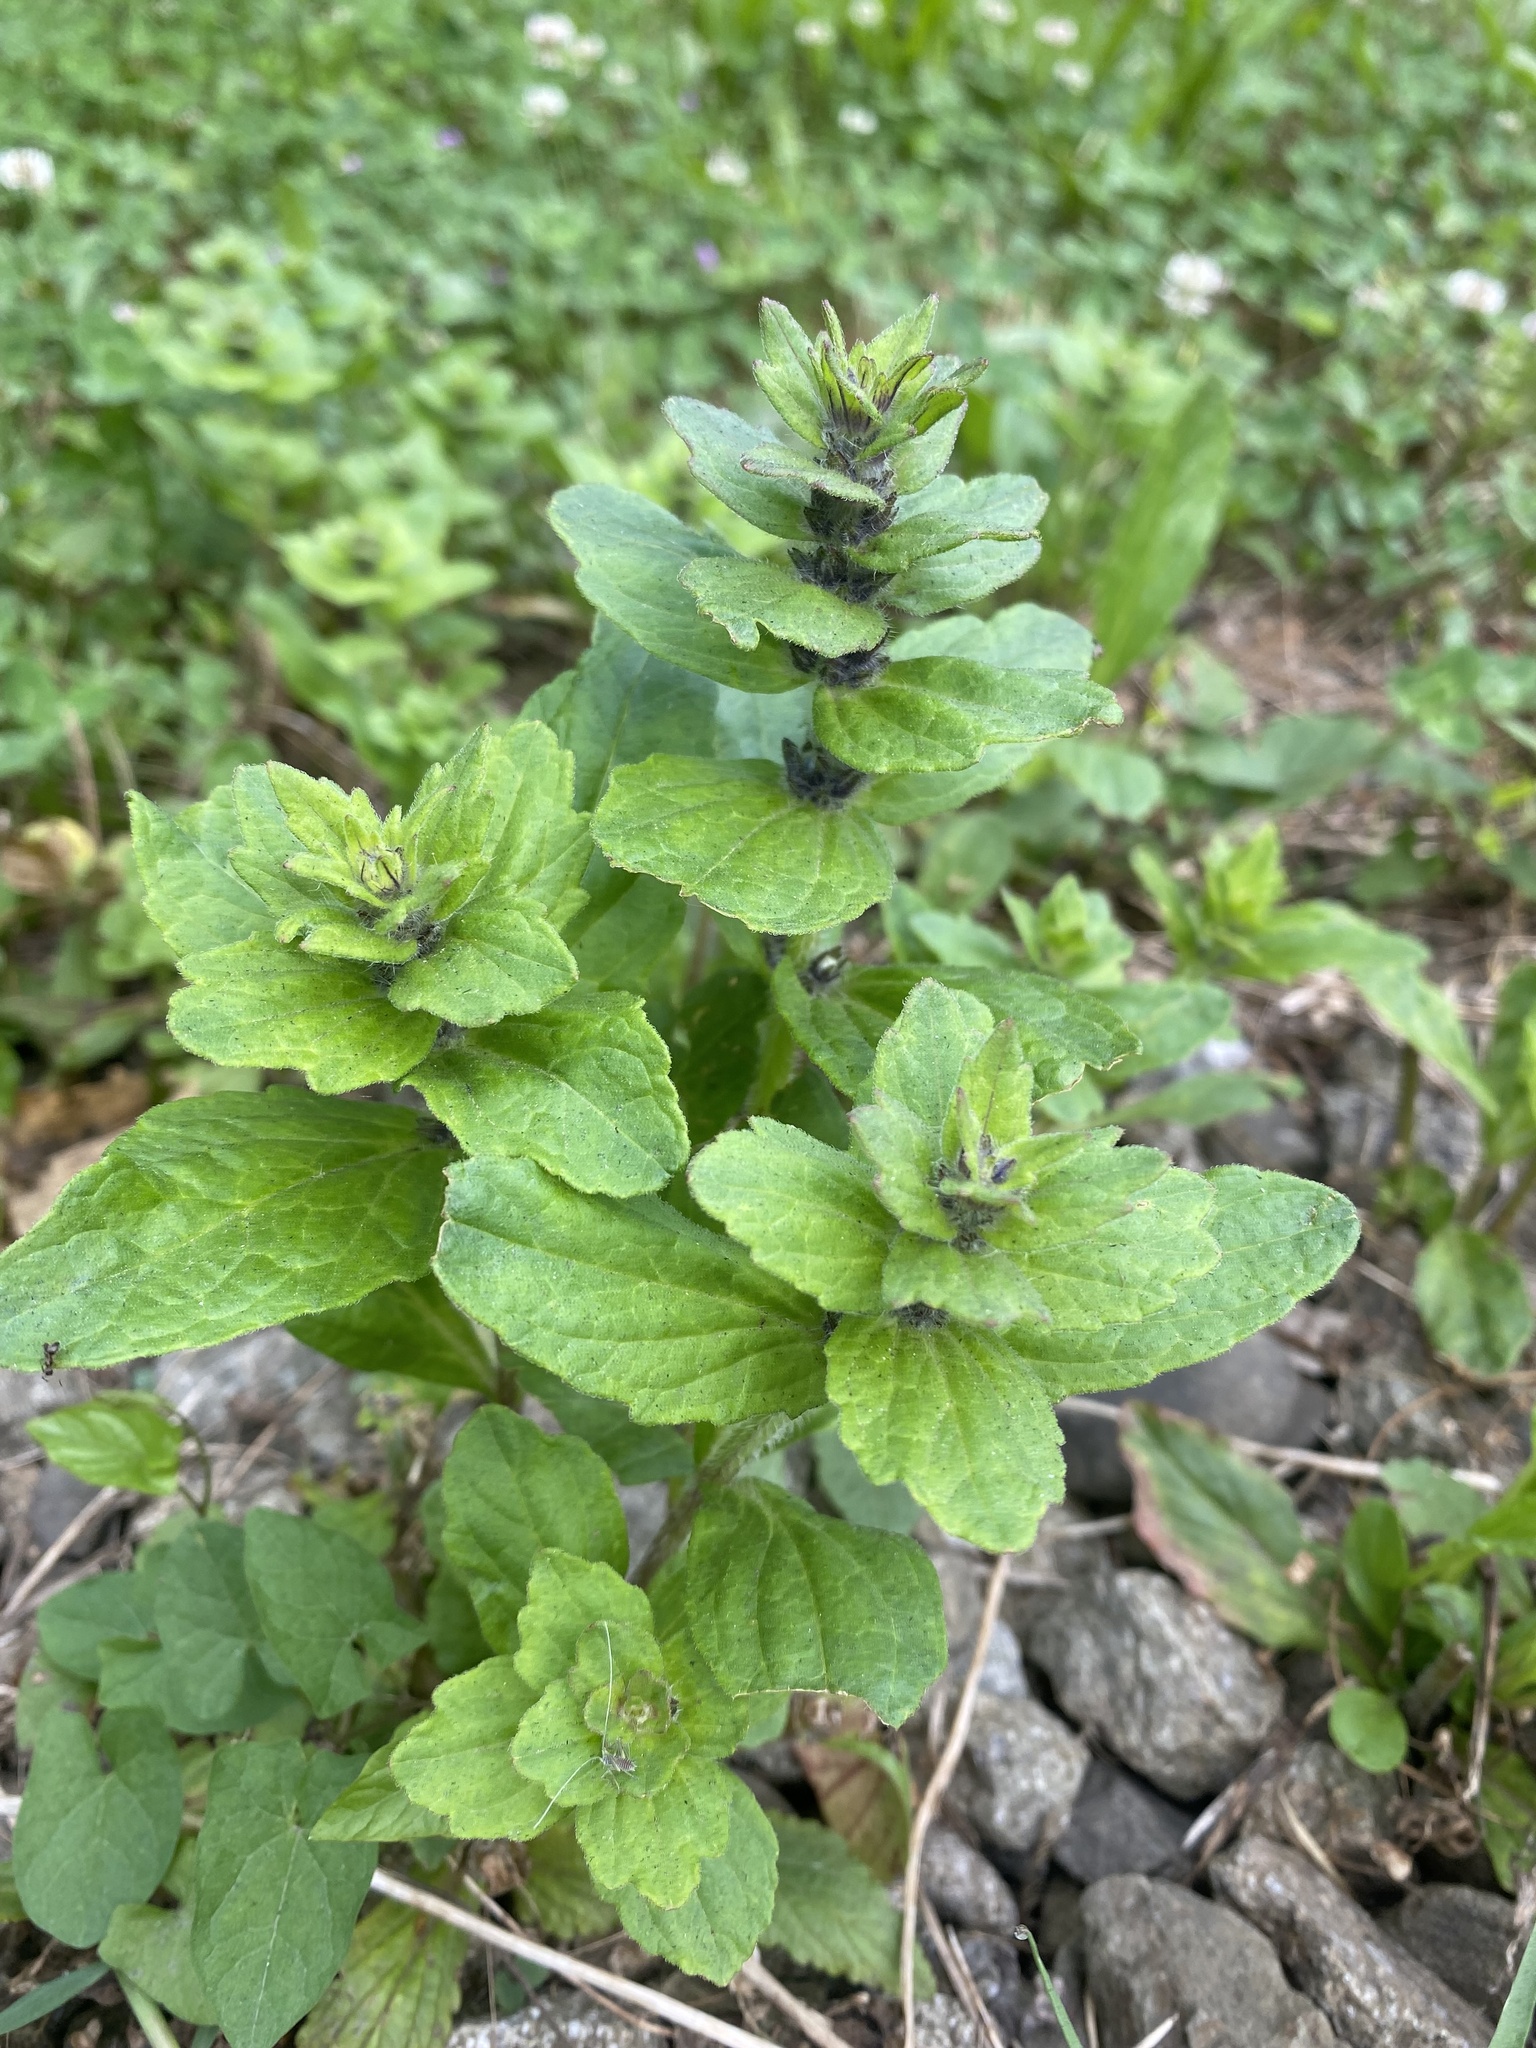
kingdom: Plantae
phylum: Tracheophyta
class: Magnoliopsida
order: Lamiales
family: Lamiaceae
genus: Ajuga
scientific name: Ajuga genevensis
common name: Blue bugle
